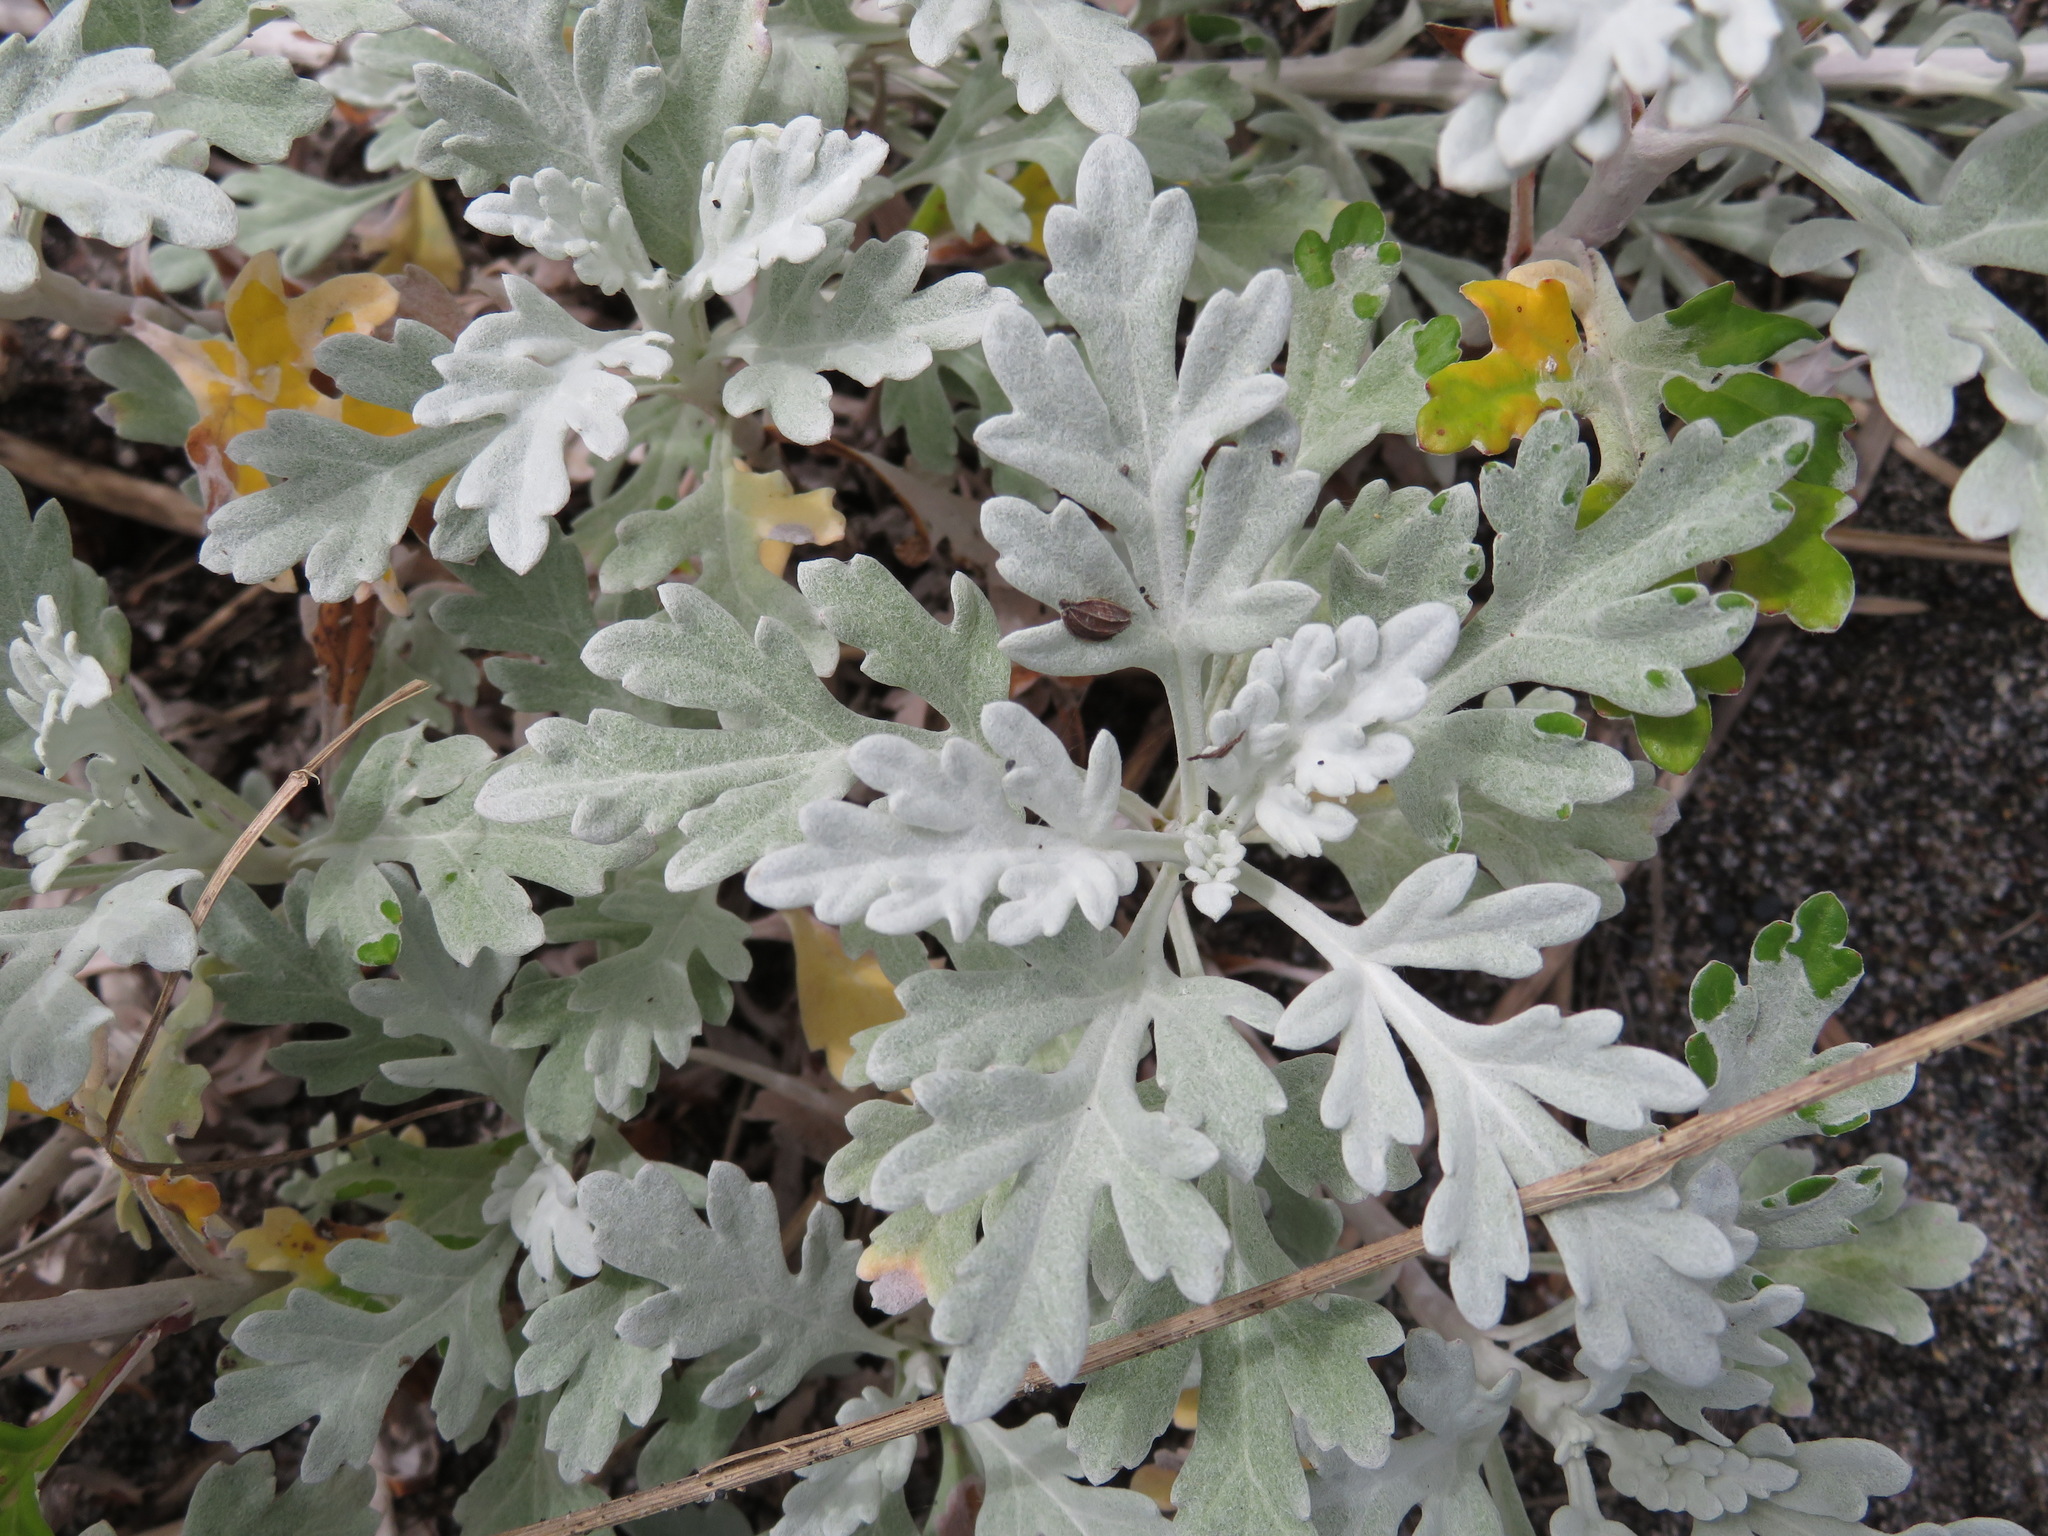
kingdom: Plantae
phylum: Tracheophyta
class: Magnoliopsida
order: Asterales
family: Asteraceae
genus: Artemisia
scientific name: Artemisia stelleriana
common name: Beach wormwood
